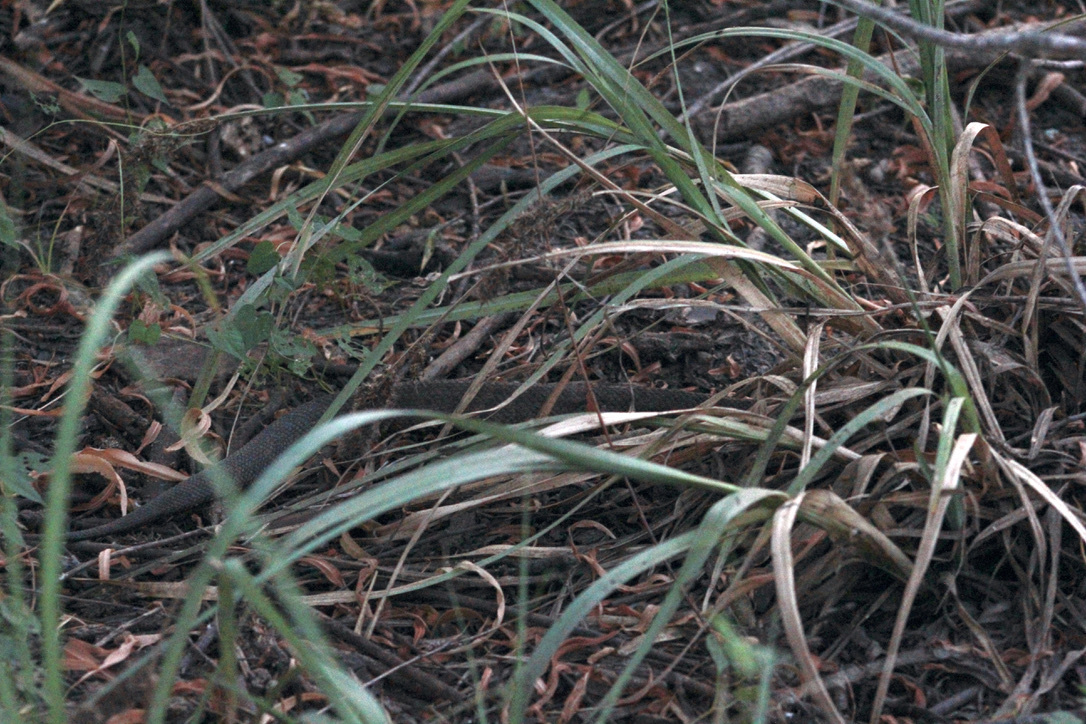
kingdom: Animalia
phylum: Chordata
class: Squamata
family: Viperidae
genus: Agkistrodon
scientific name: Agkistrodon piscivorus
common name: Cottonmouth
